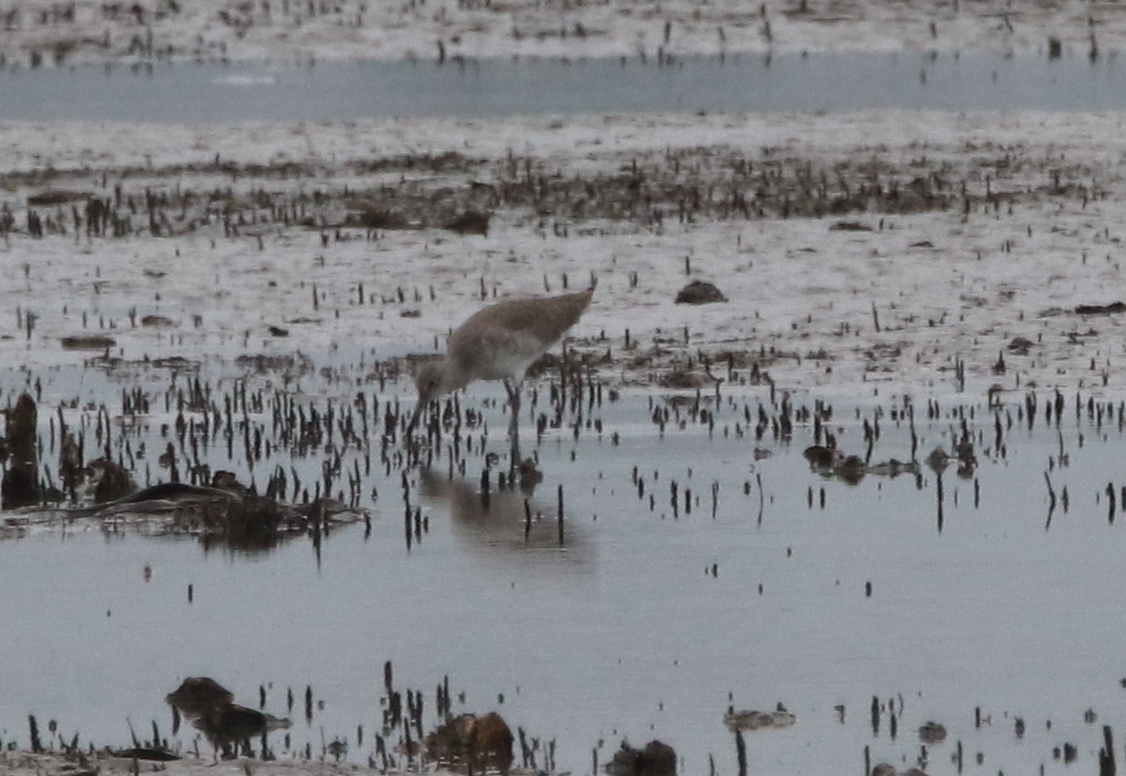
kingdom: Animalia
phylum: Chordata
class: Aves
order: Charadriiformes
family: Scolopacidae
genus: Tringa
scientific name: Tringa semipalmata
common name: Willet
